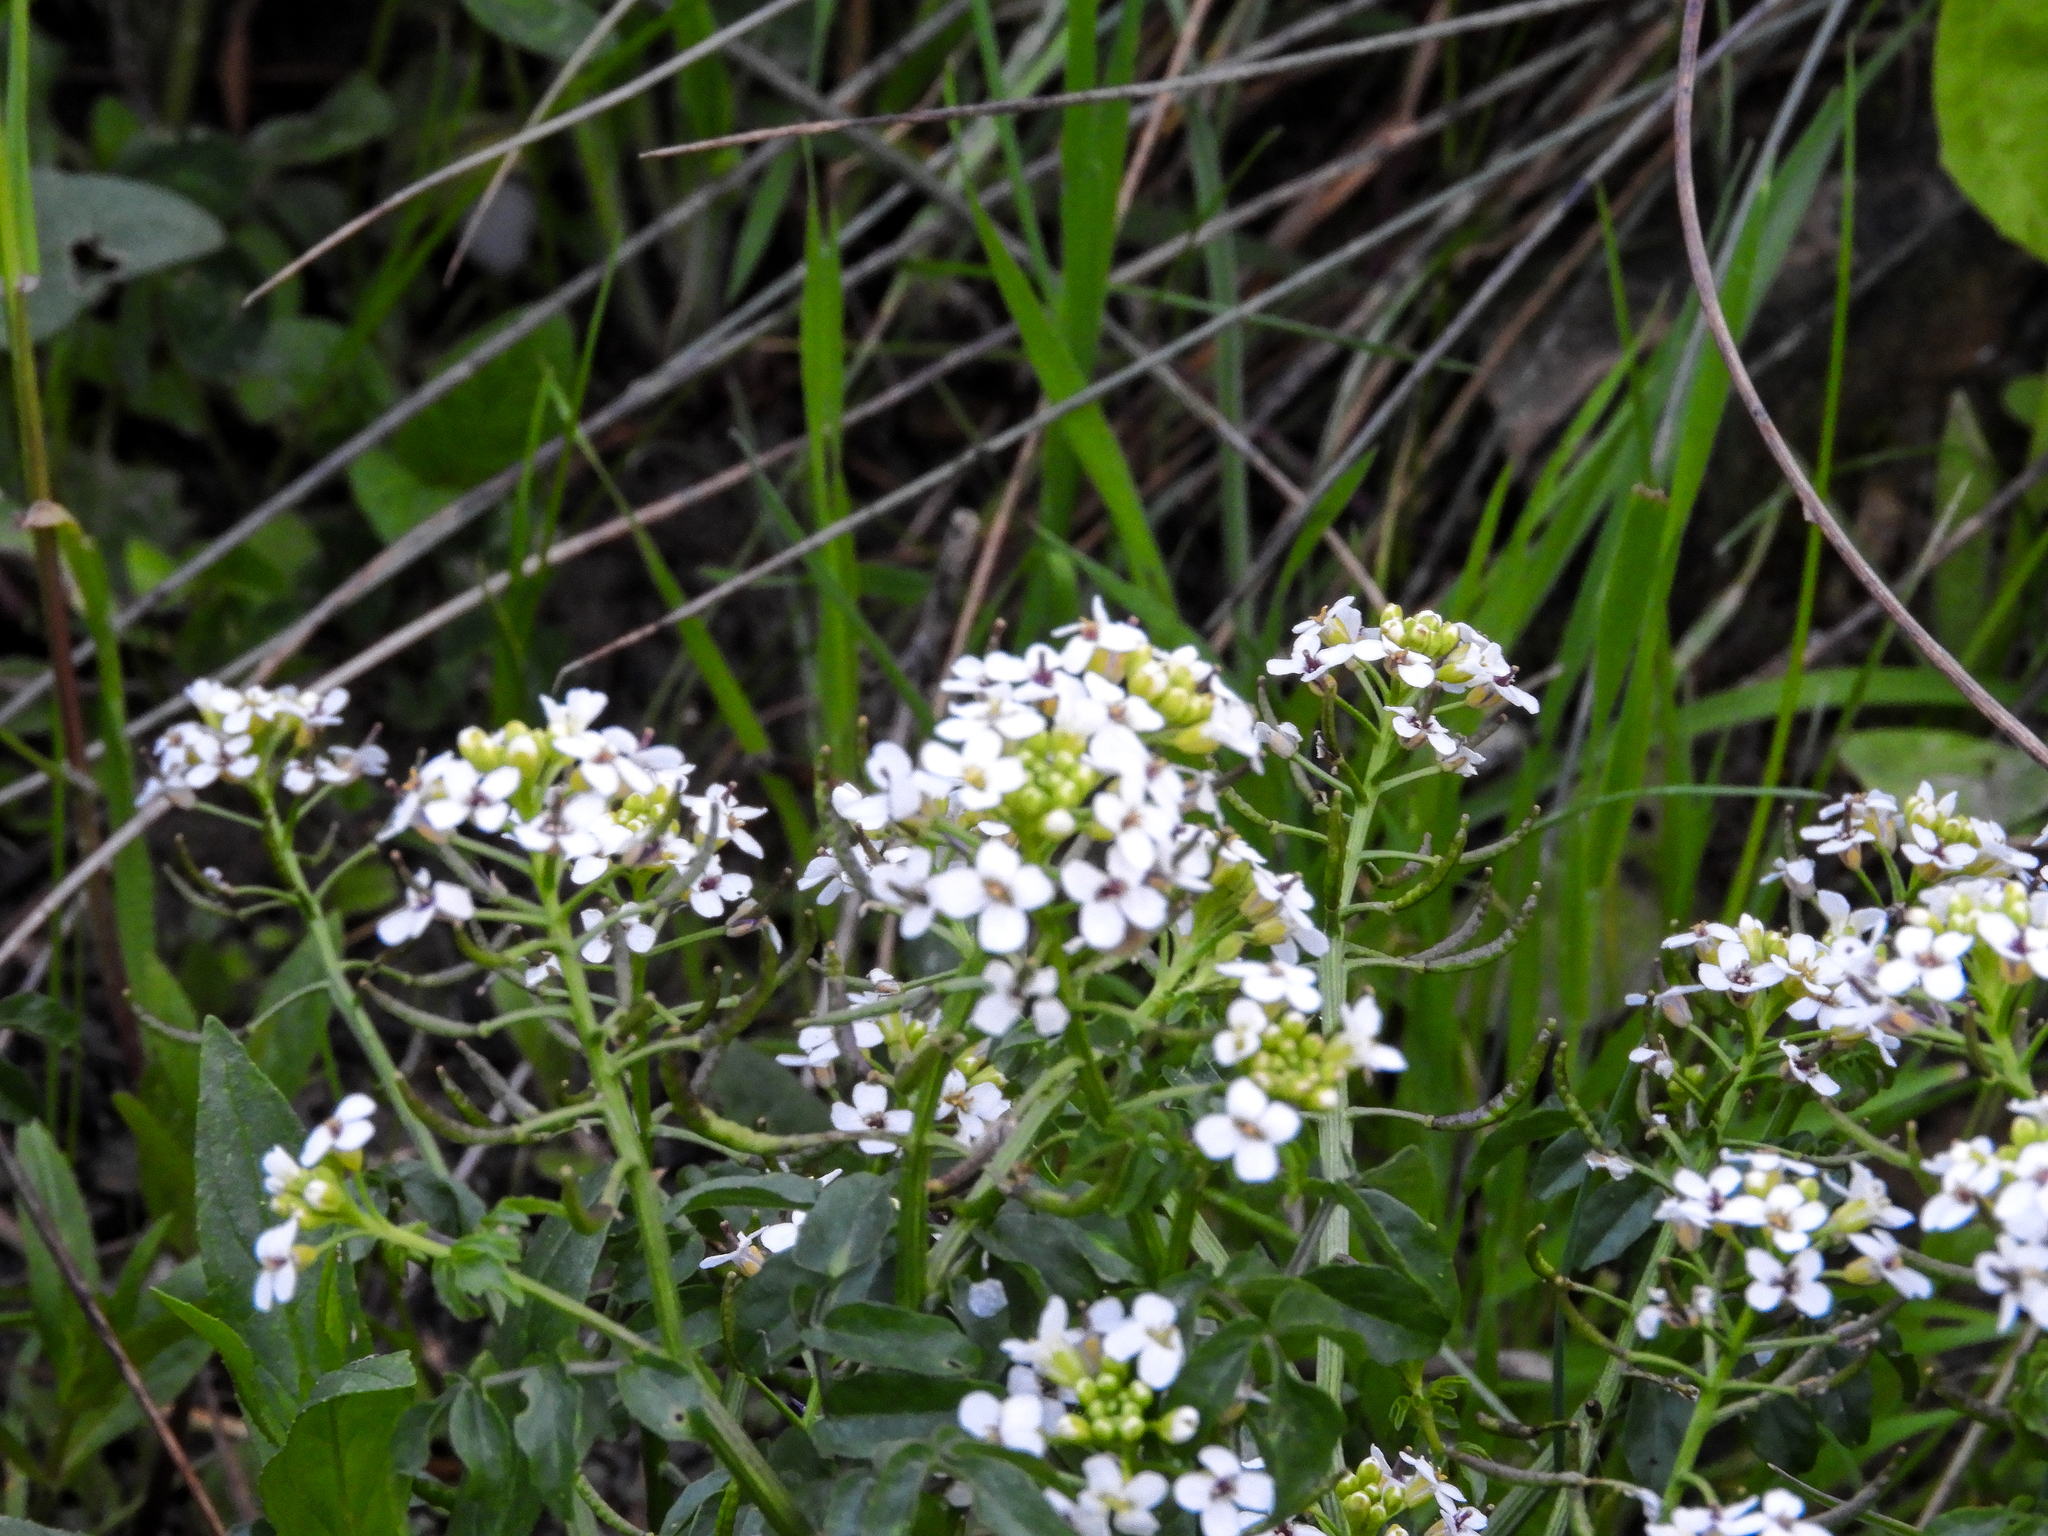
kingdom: Plantae
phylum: Tracheophyta
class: Magnoliopsida
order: Brassicales
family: Brassicaceae
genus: Nasturtium
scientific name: Nasturtium officinale
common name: Watercress
